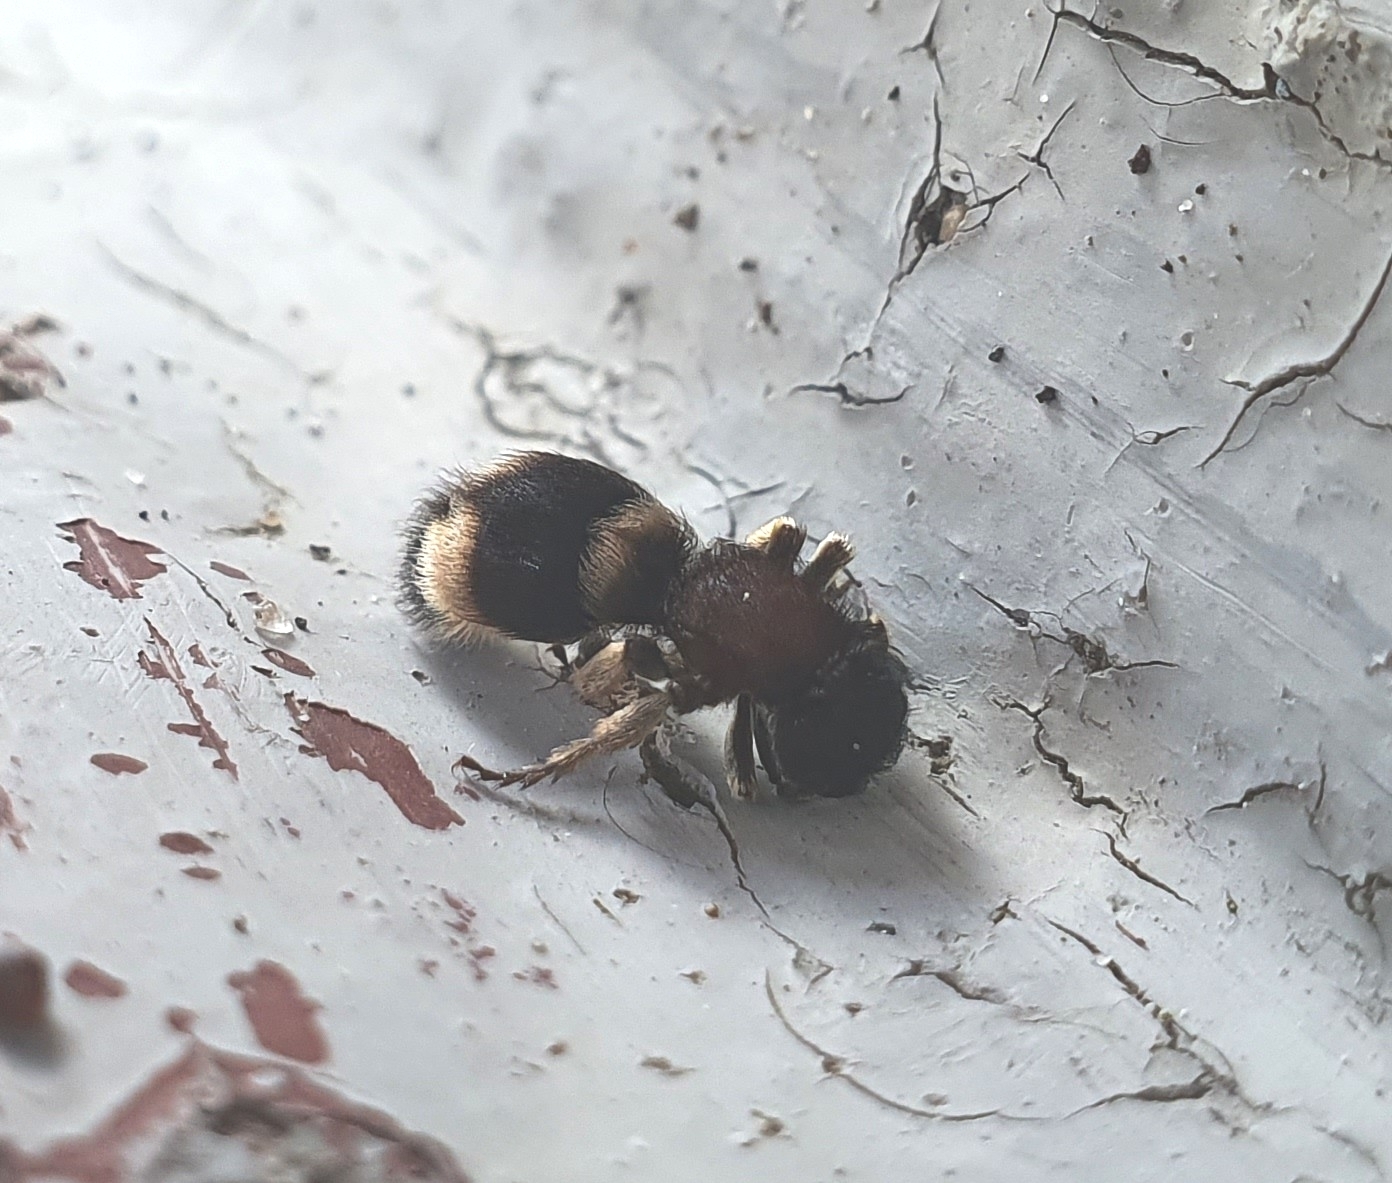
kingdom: Animalia
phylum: Arthropoda
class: Insecta
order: Hymenoptera
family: Mutillidae
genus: Mutilla
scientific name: Mutilla marginata
